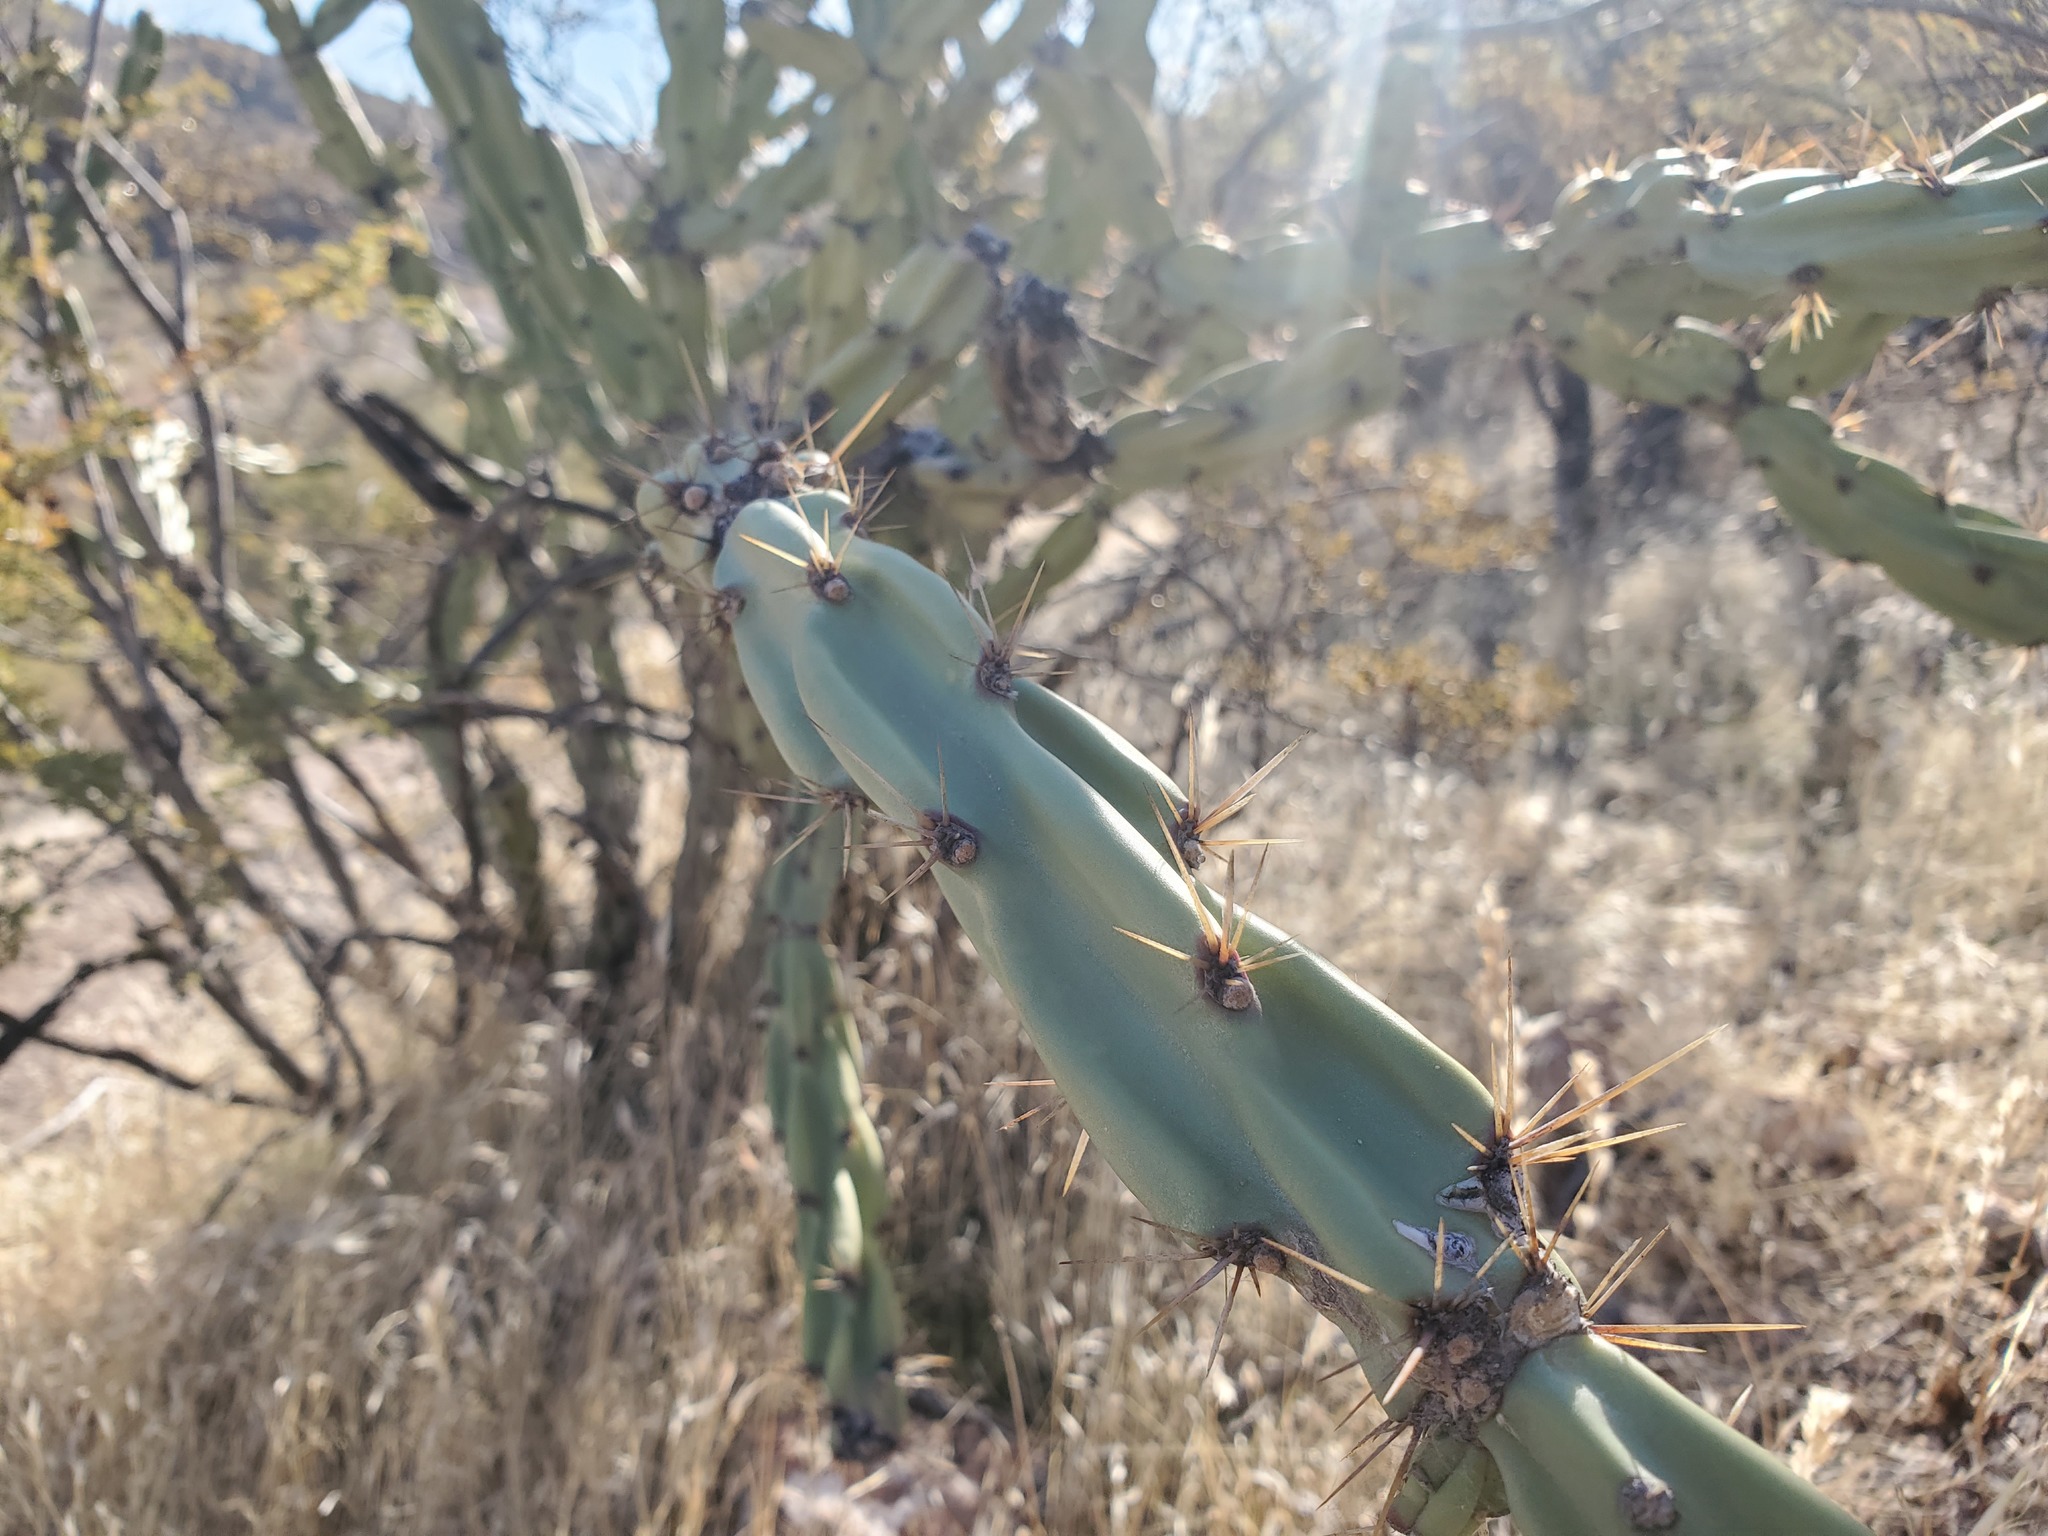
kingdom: Plantae
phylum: Tracheophyta
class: Magnoliopsida
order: Caryophyllales
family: Cactaceae
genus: Cylindropuntia
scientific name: Cylindropuntia acanthocarpa
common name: Buckhorn cholla
